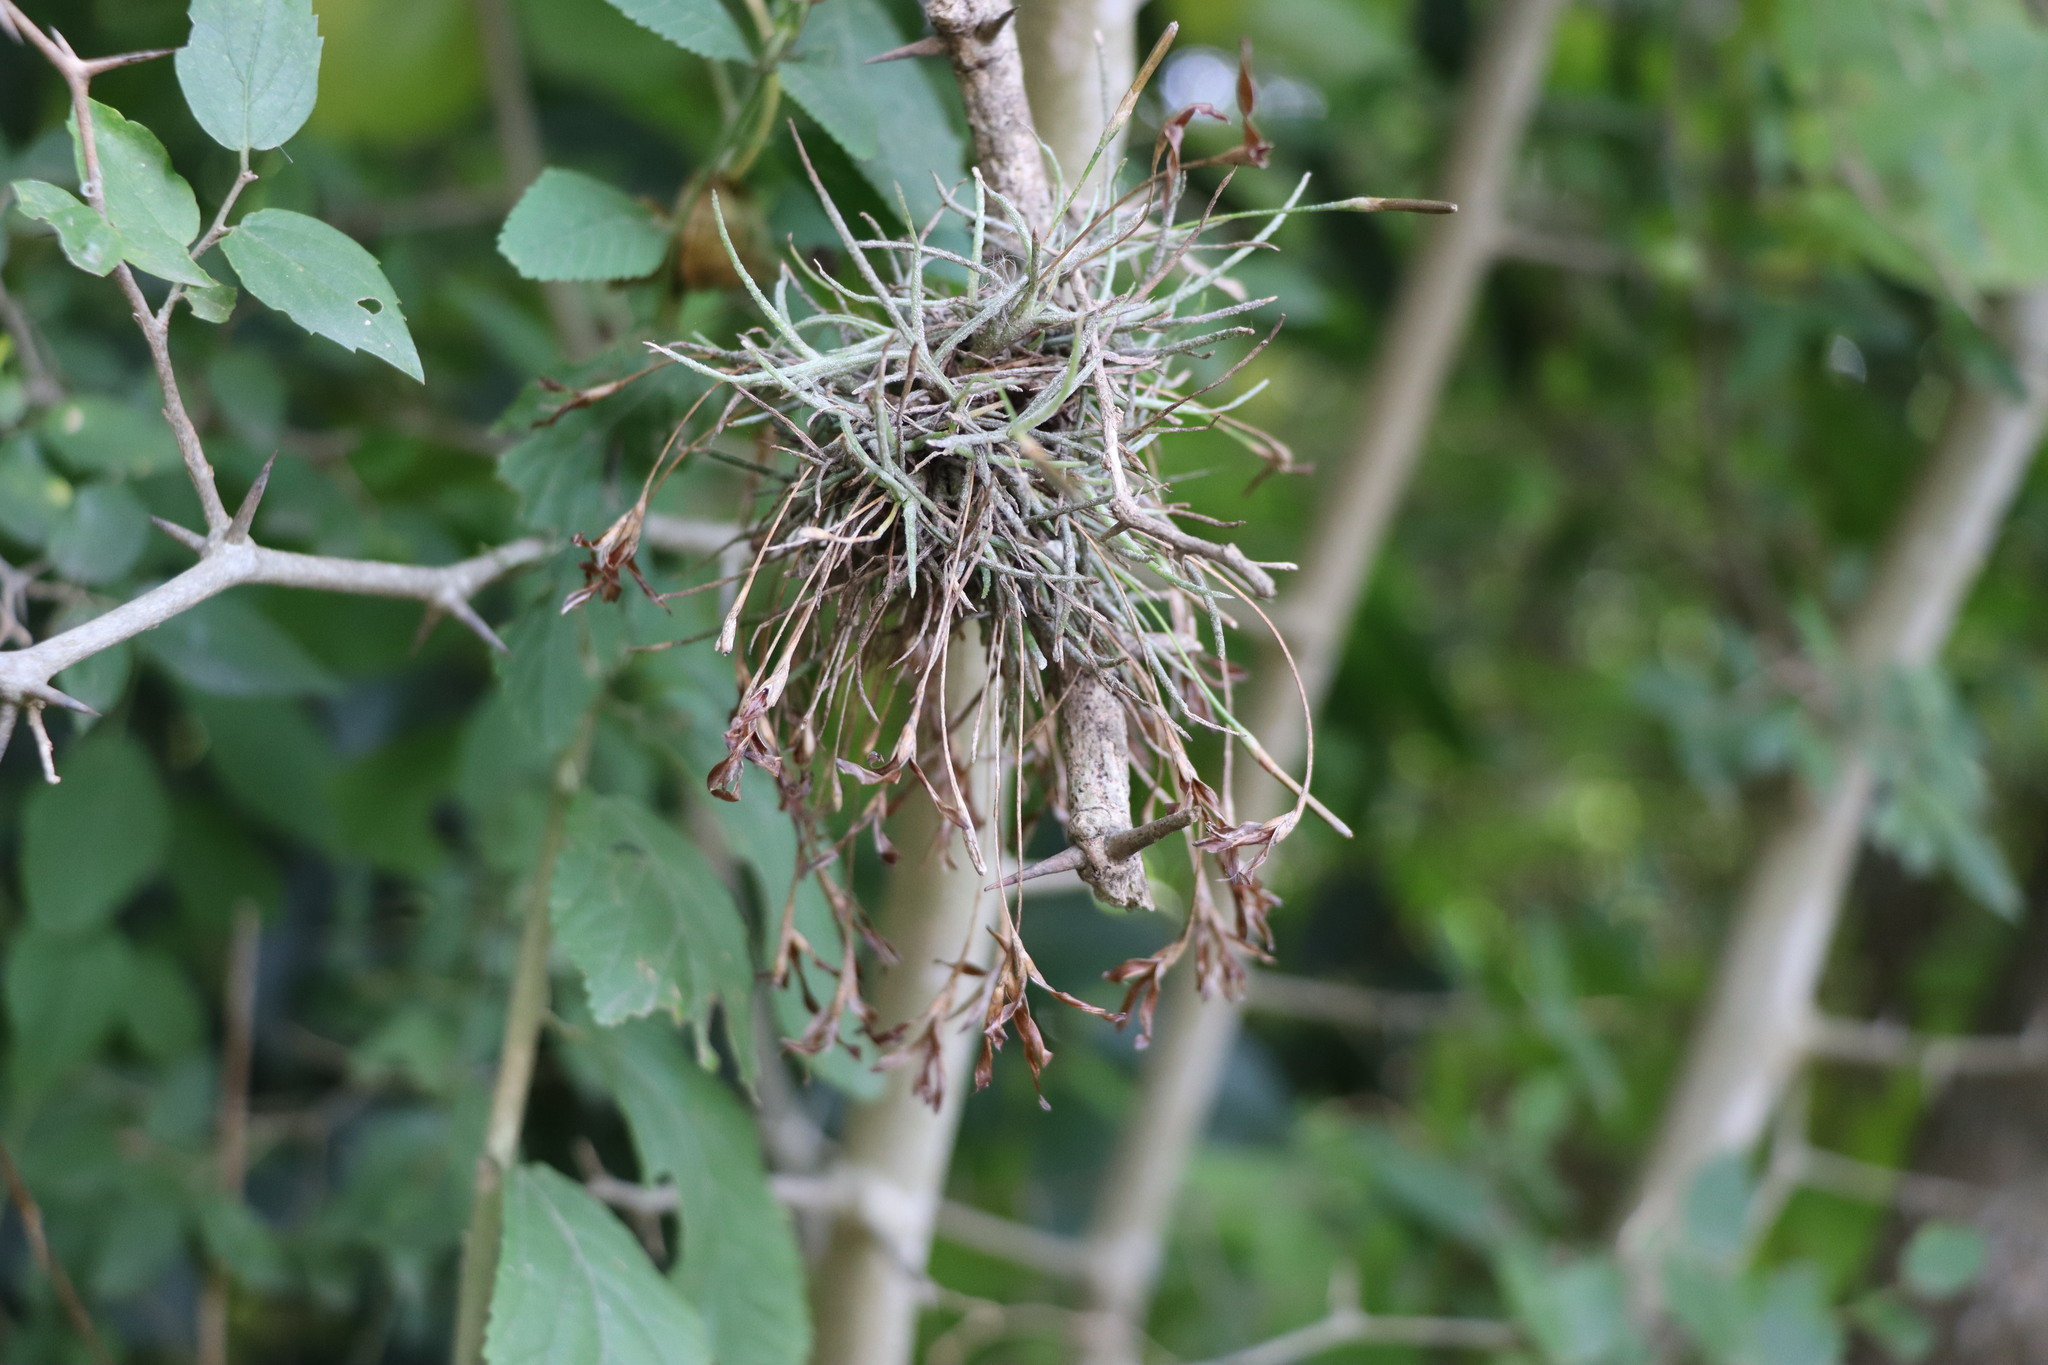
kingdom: Plantae
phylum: Tracheophyta
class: Liliopsida
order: Poales
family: Bromeliaceae
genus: Tillandsia
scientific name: Tillandsia recurvata
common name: Small ballmoss
